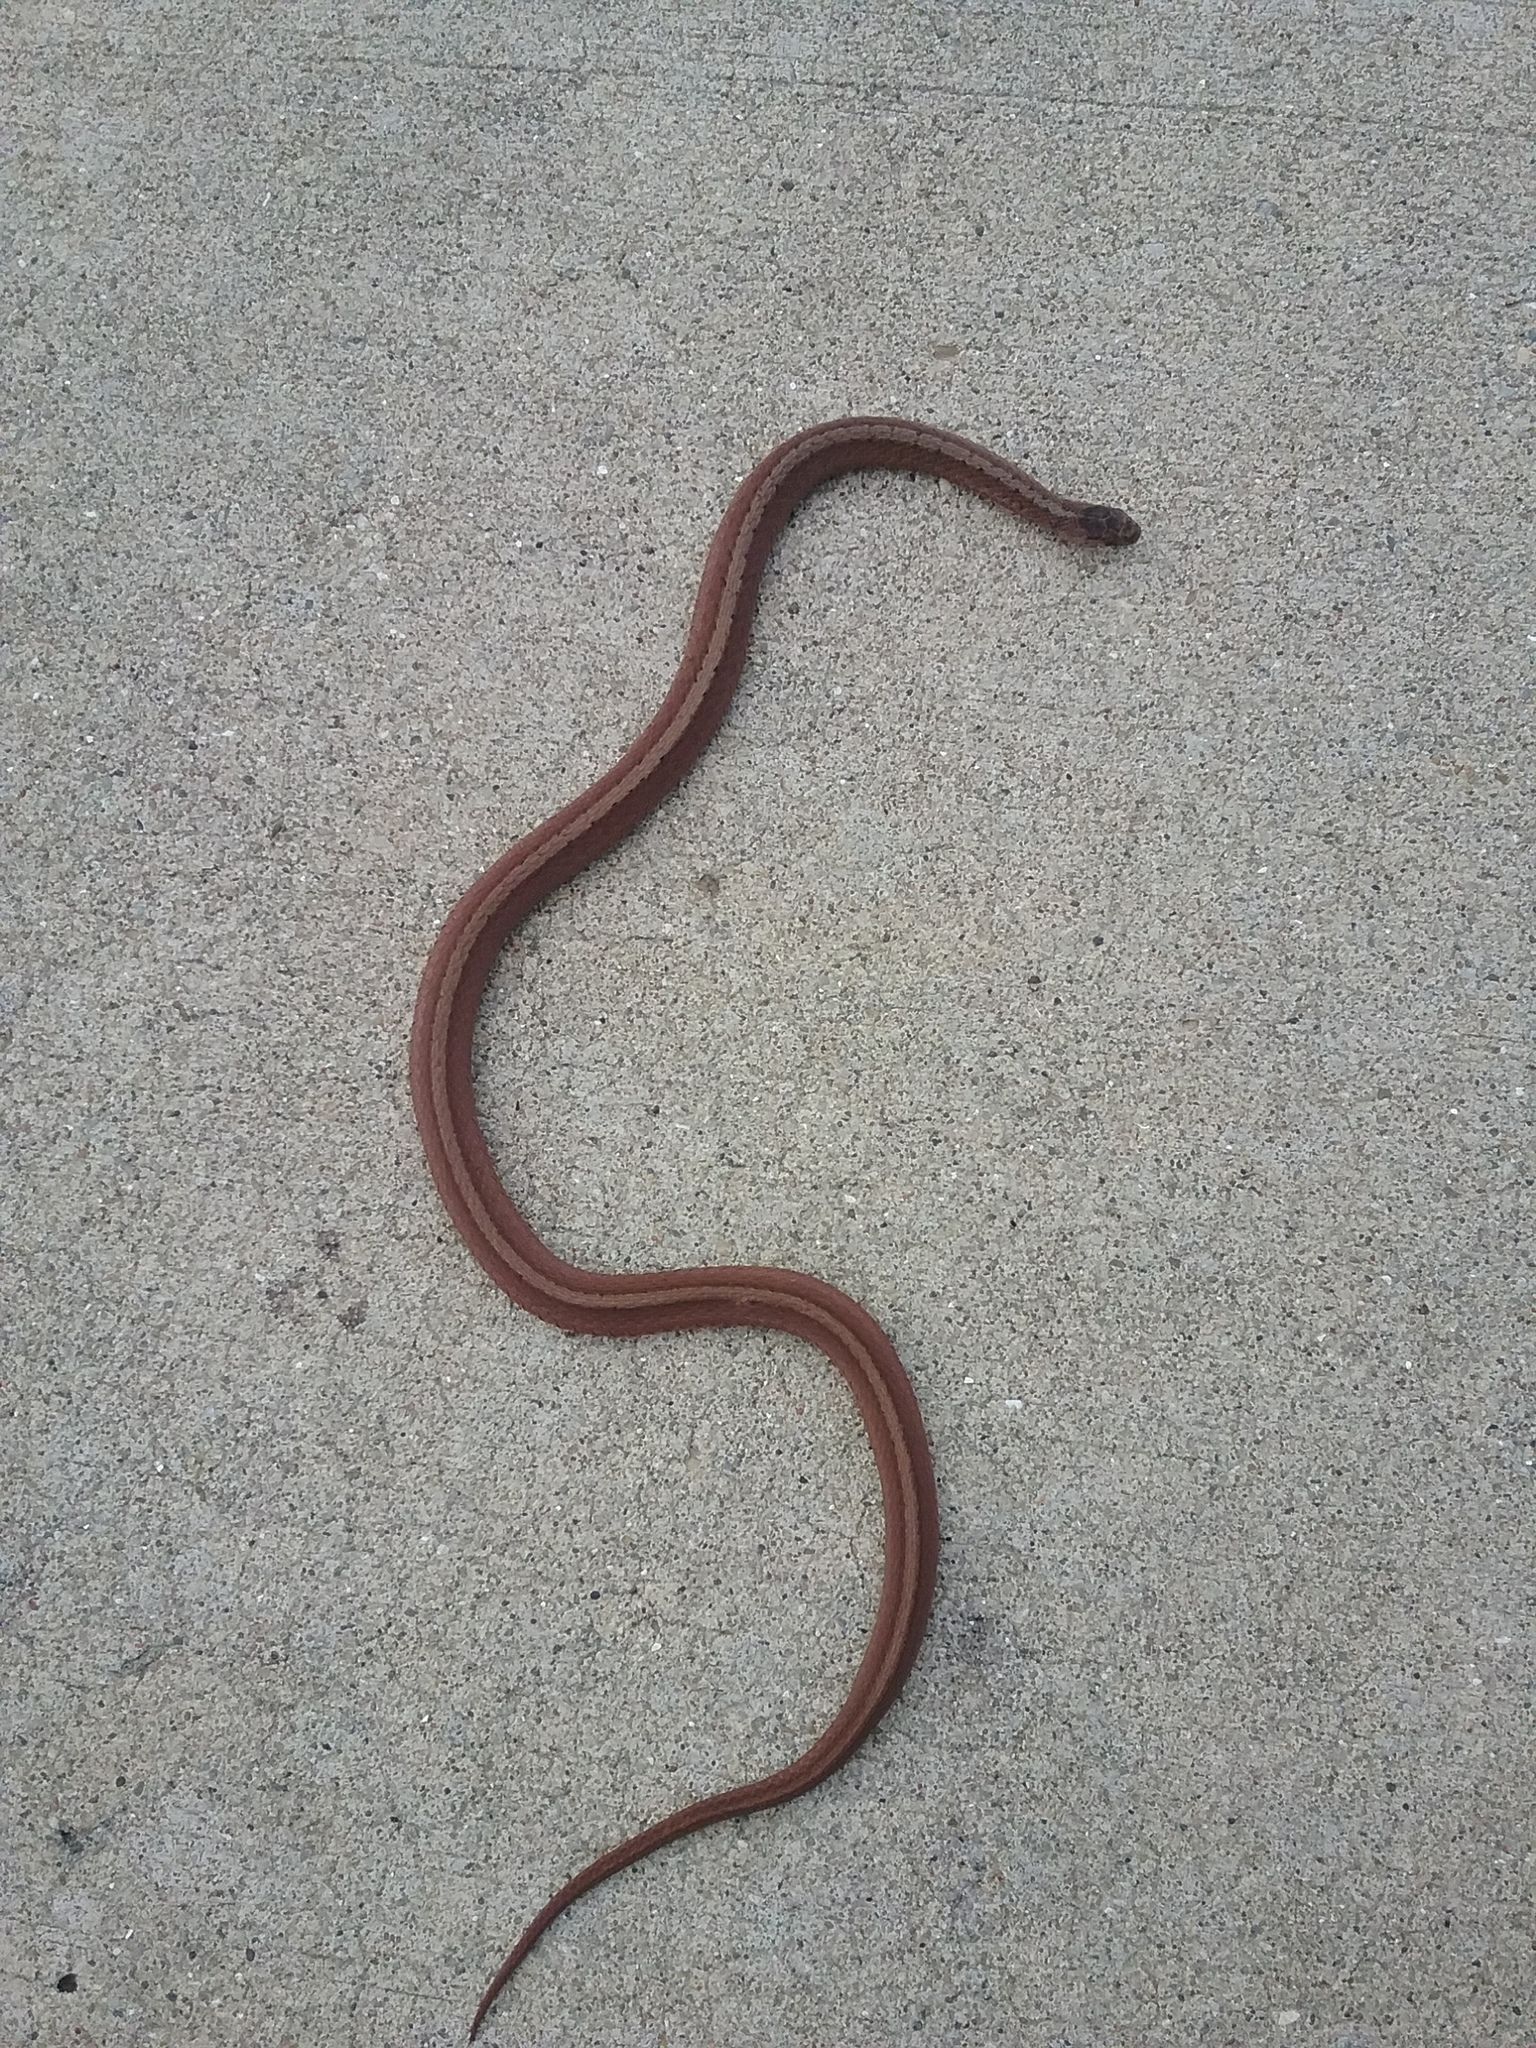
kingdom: Animalia
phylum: Chordata
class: Squamata
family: Colubridae
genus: Storeria
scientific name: Storeria dekayi
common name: (dekay’s) brown snake
